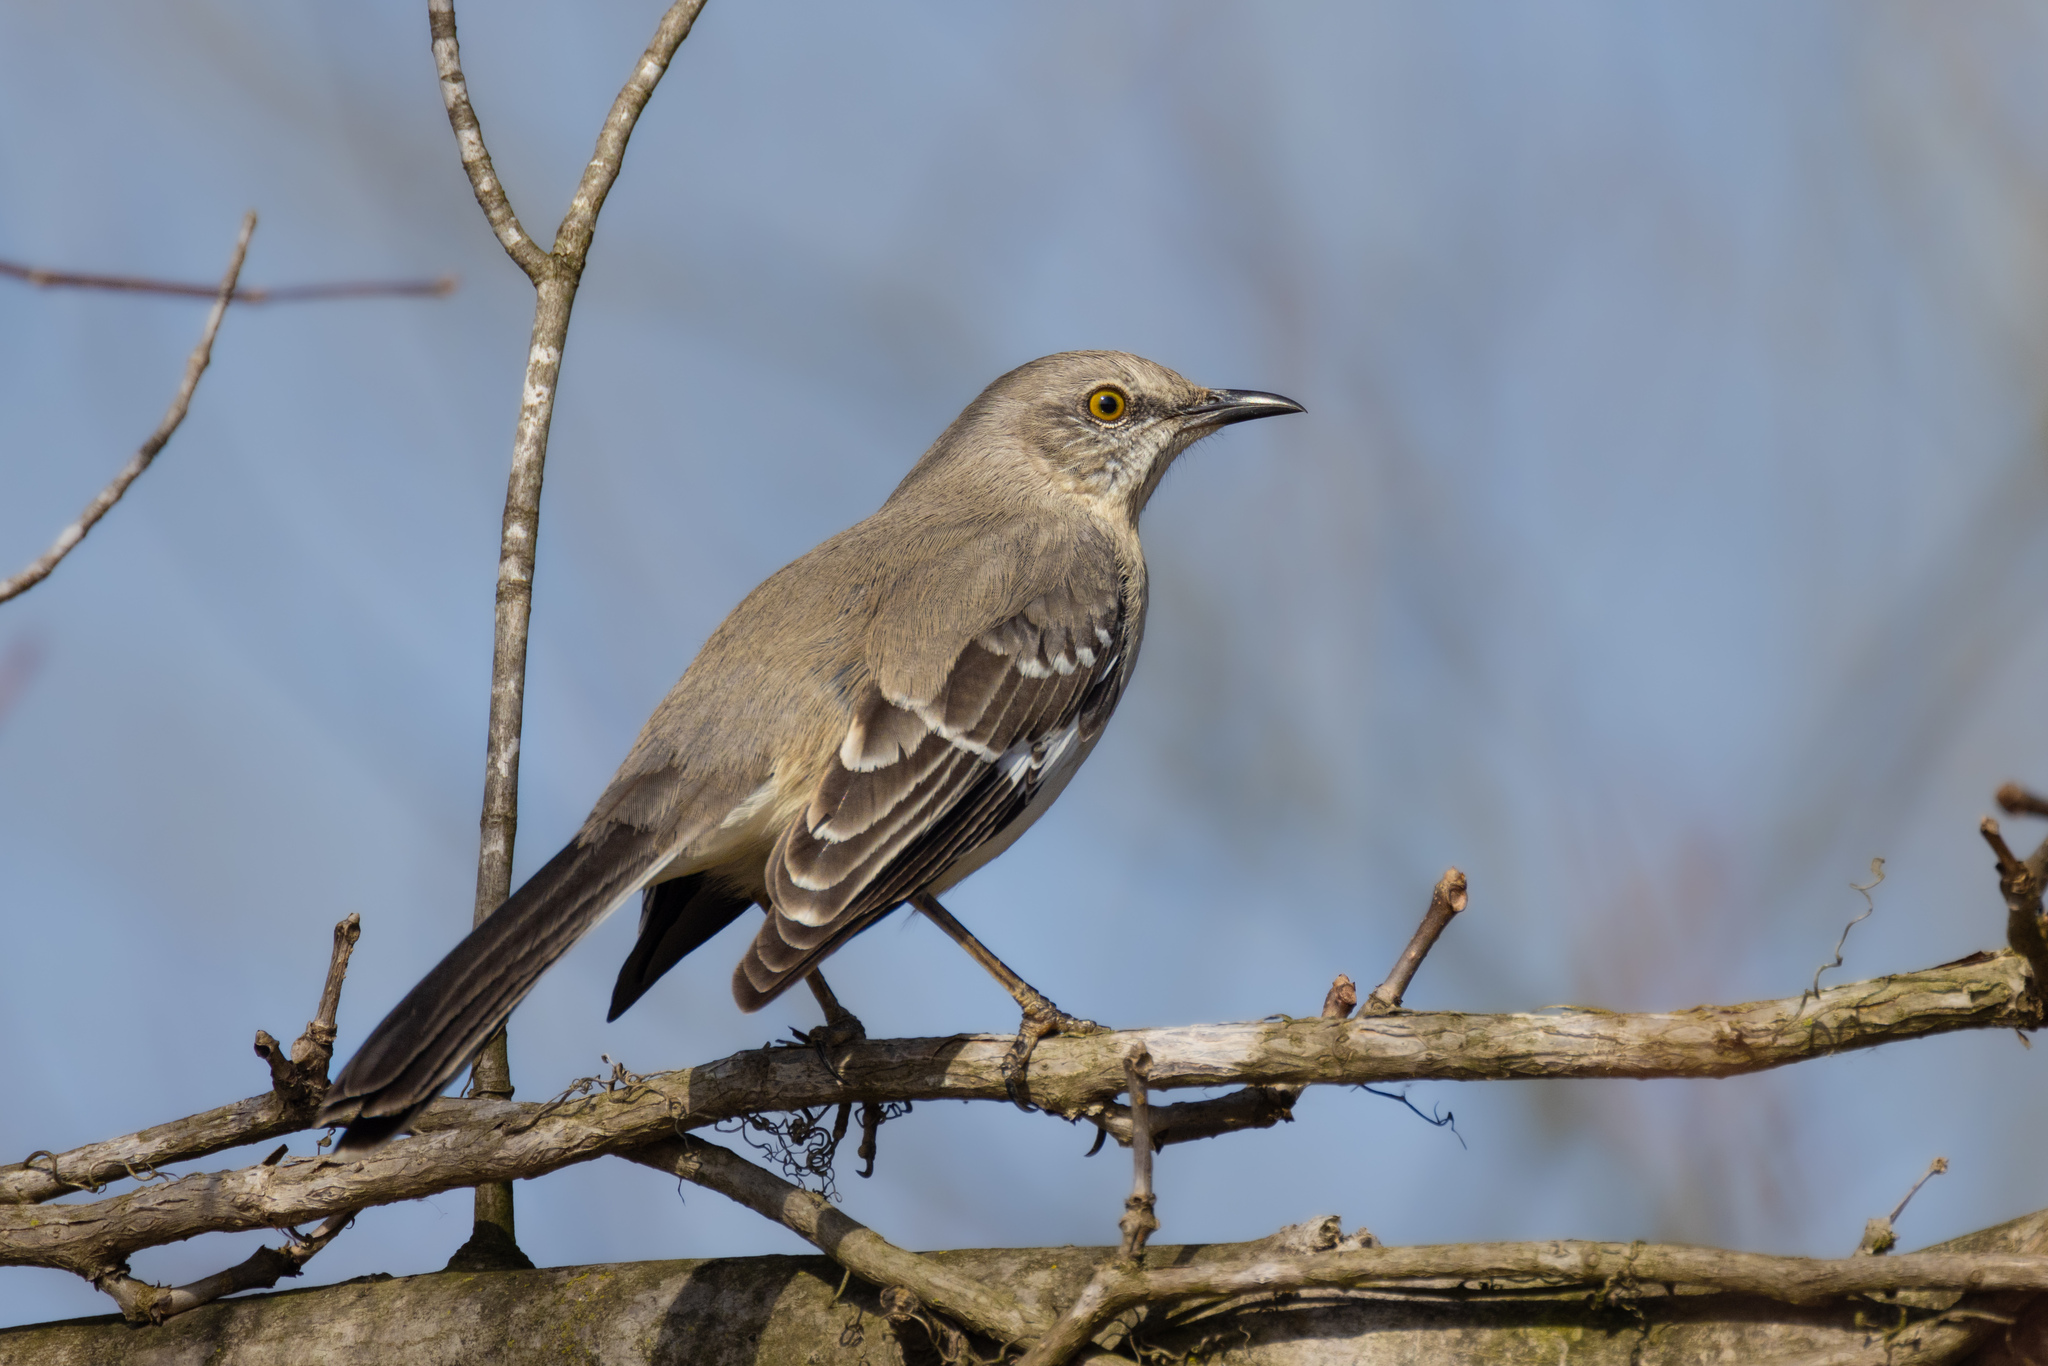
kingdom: Animalia
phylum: Chordata
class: Aves
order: Passeriformes
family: Mimidae
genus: Mimus
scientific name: Mimus polyglottos
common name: Northern mockingbird
